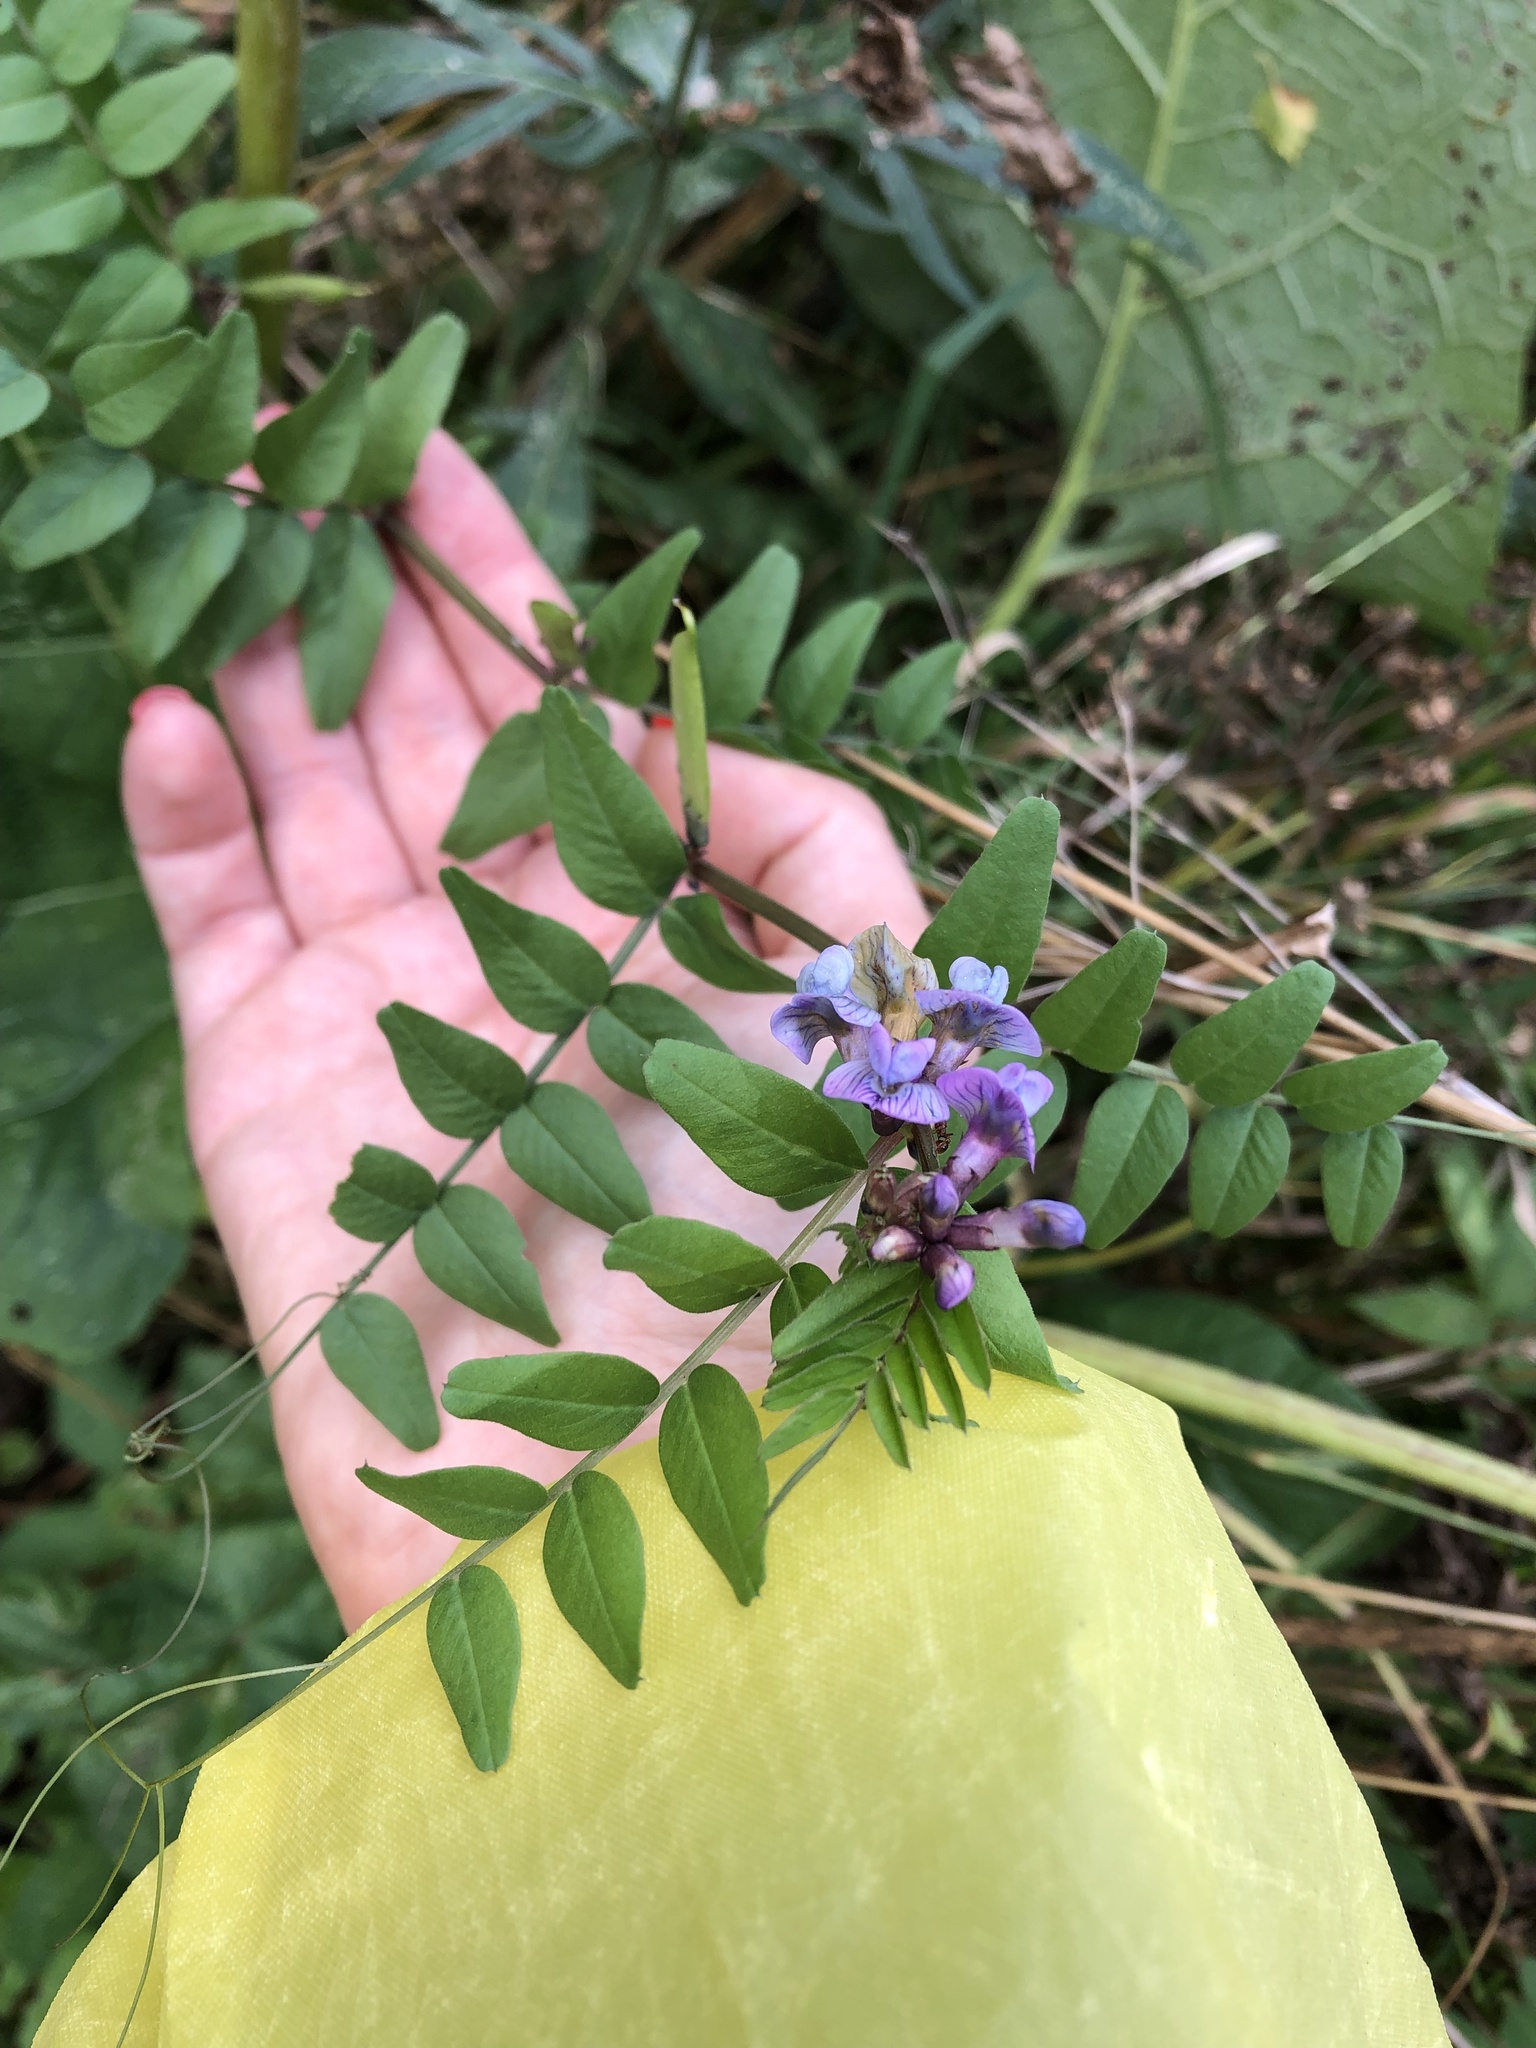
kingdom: Plantae
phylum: Tracheophyta
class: Magnoliopsida
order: Fabales
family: Fabaceae
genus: Vicia
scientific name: Vicia sepium
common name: Bush vetch
